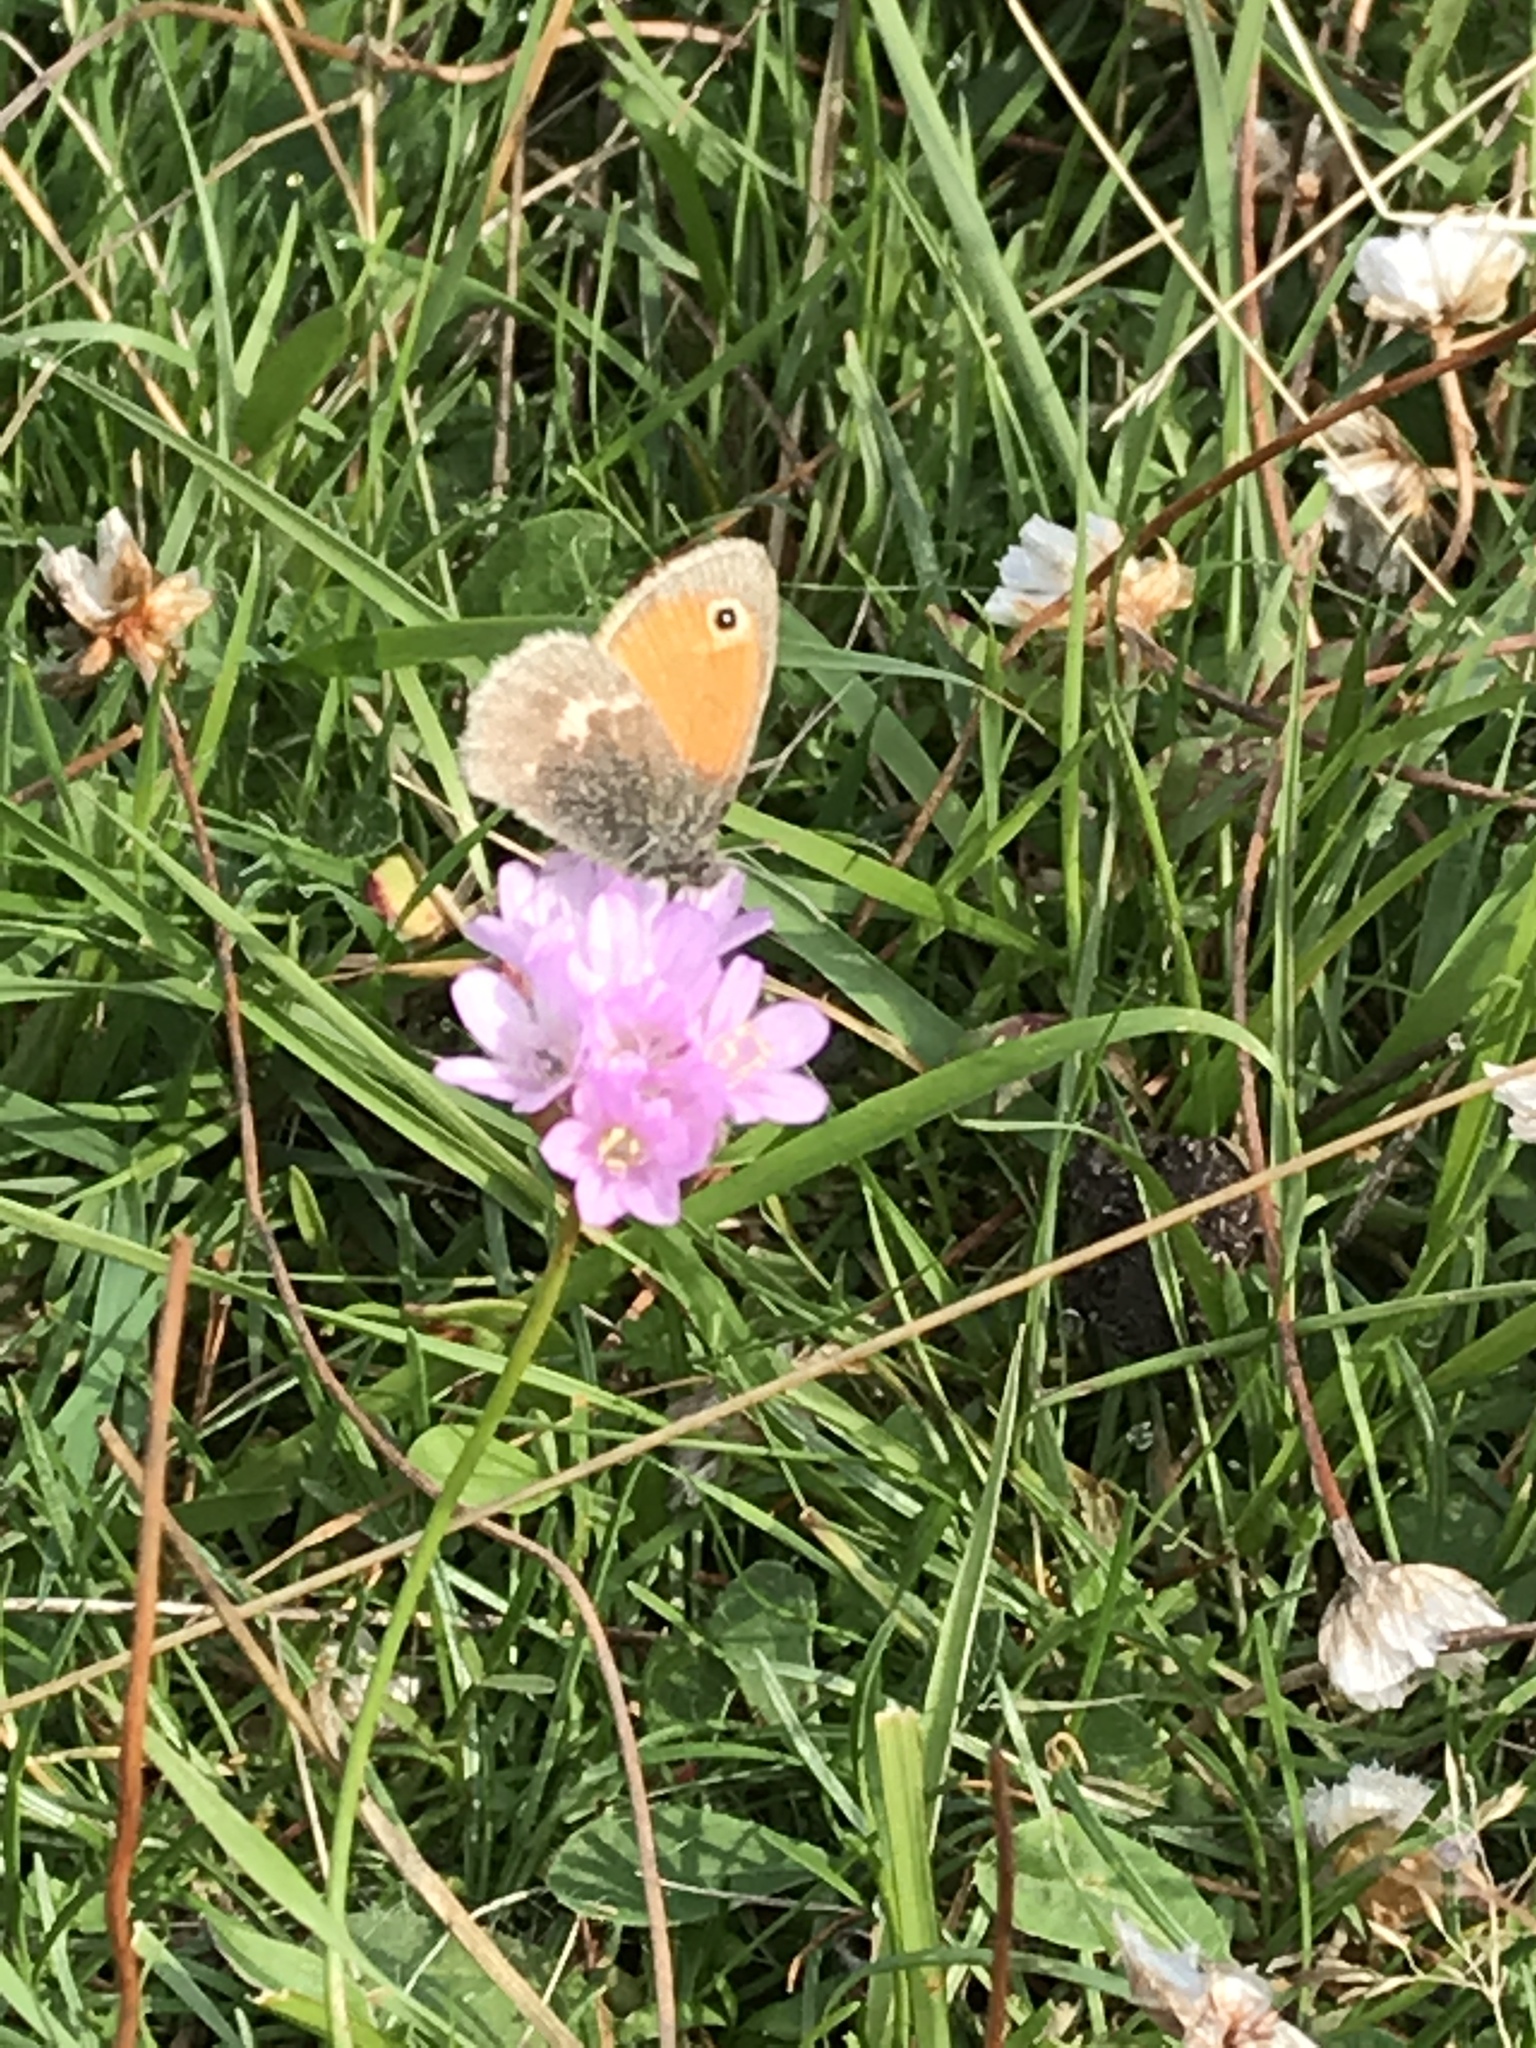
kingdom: Animalia
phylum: Arthropoda
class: Insecta
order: Lepidoptera
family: Nymphalidae
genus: Coenonympha
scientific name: Coenonympha pamphilus
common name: Small heath
